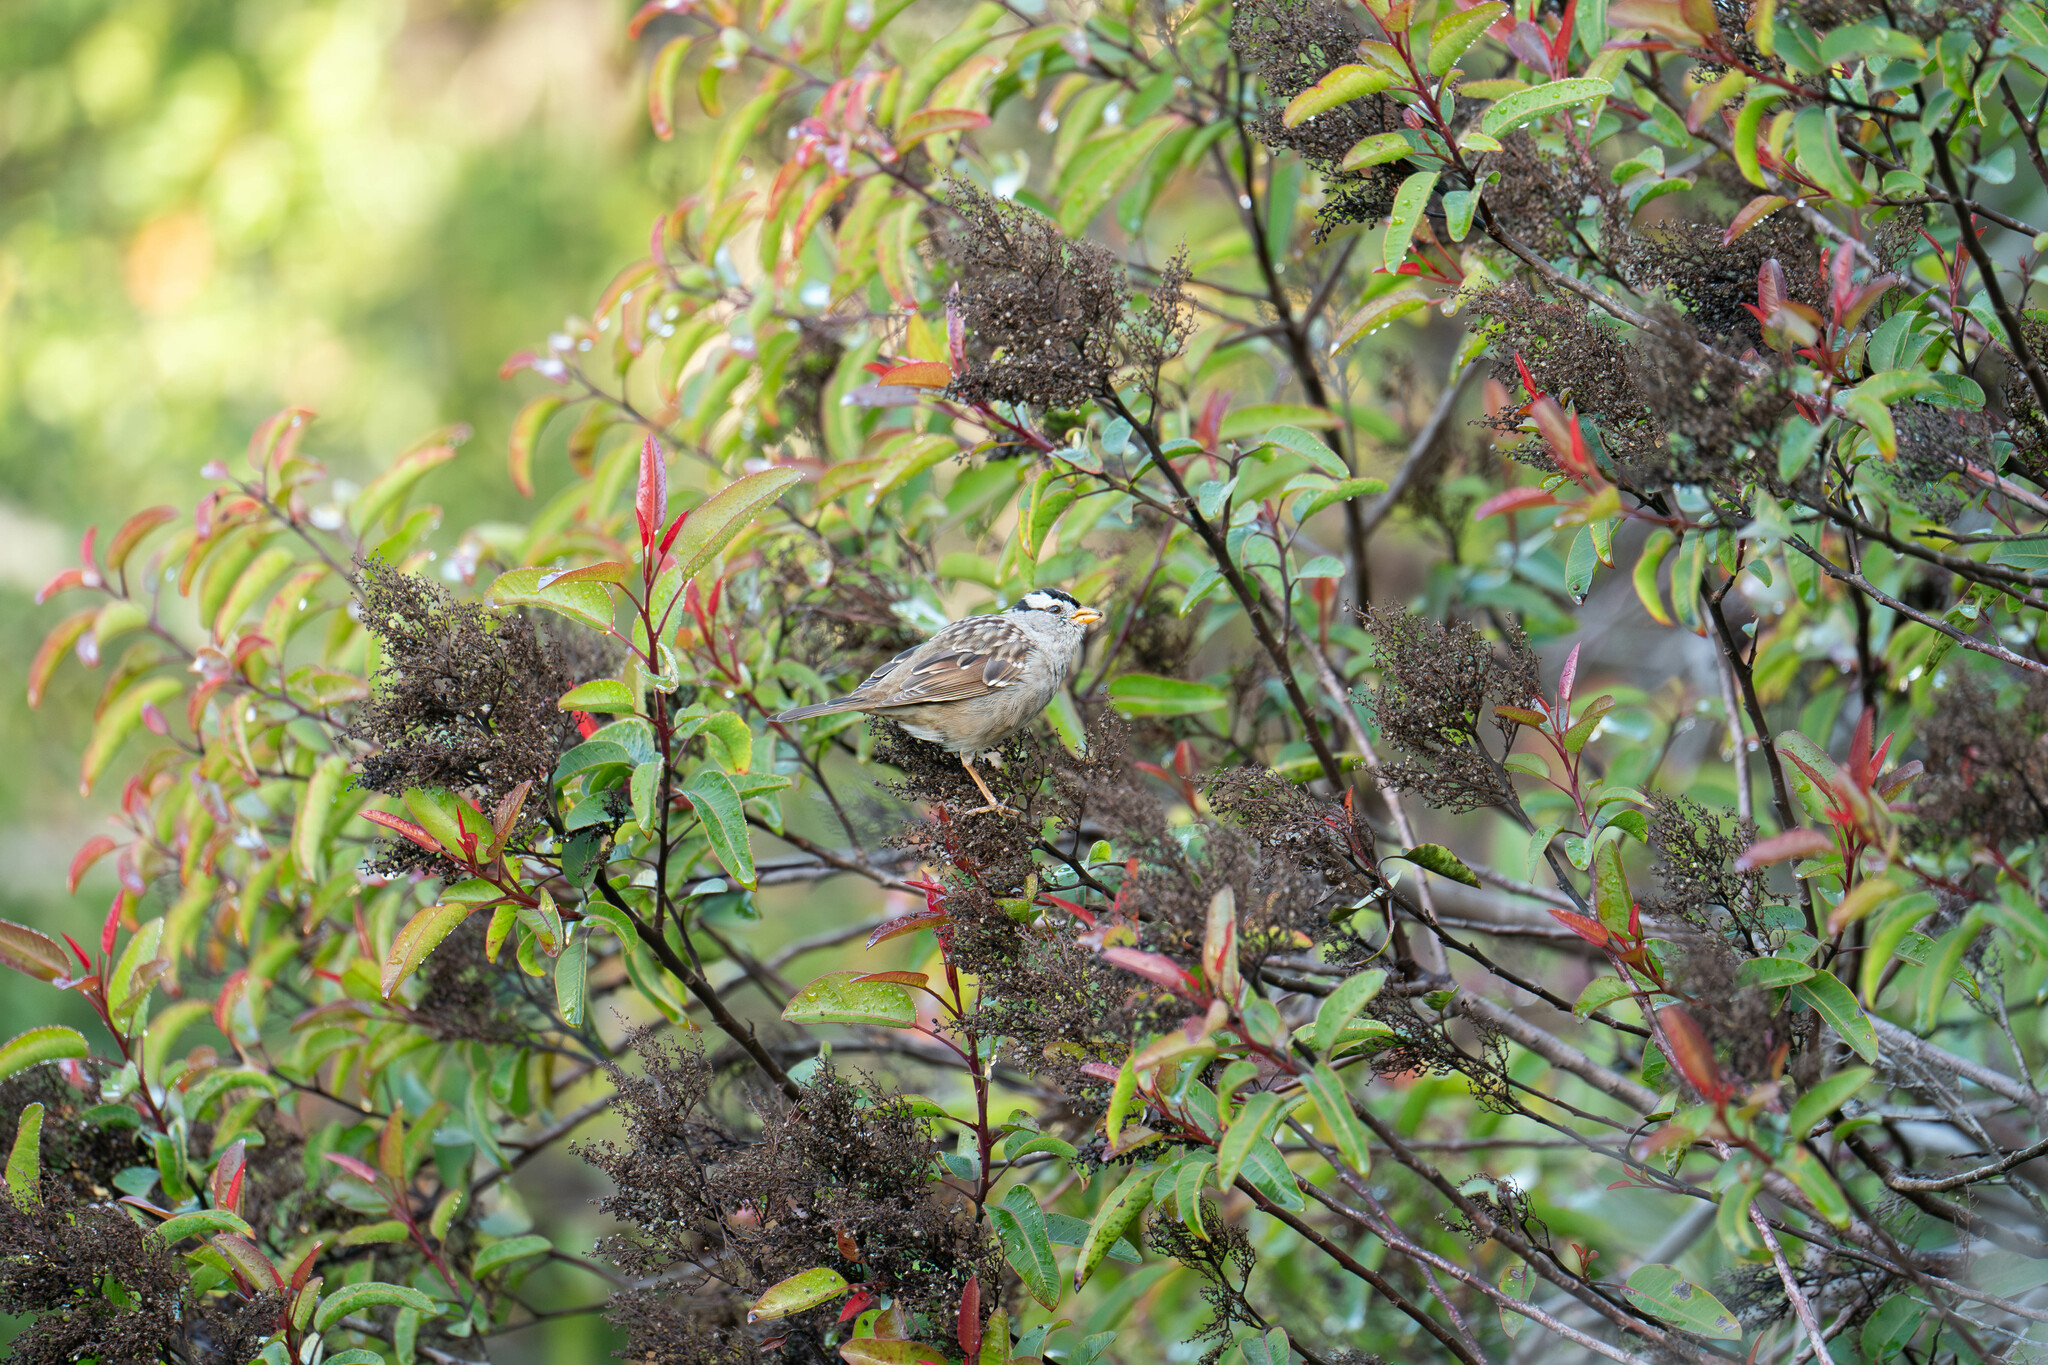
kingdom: Animalia
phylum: Chordata
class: Aves
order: Passeriformes
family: Passerellidae
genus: Zonotrichia
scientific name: Zonotrichia leucophrys
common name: White-crowned sparrow
